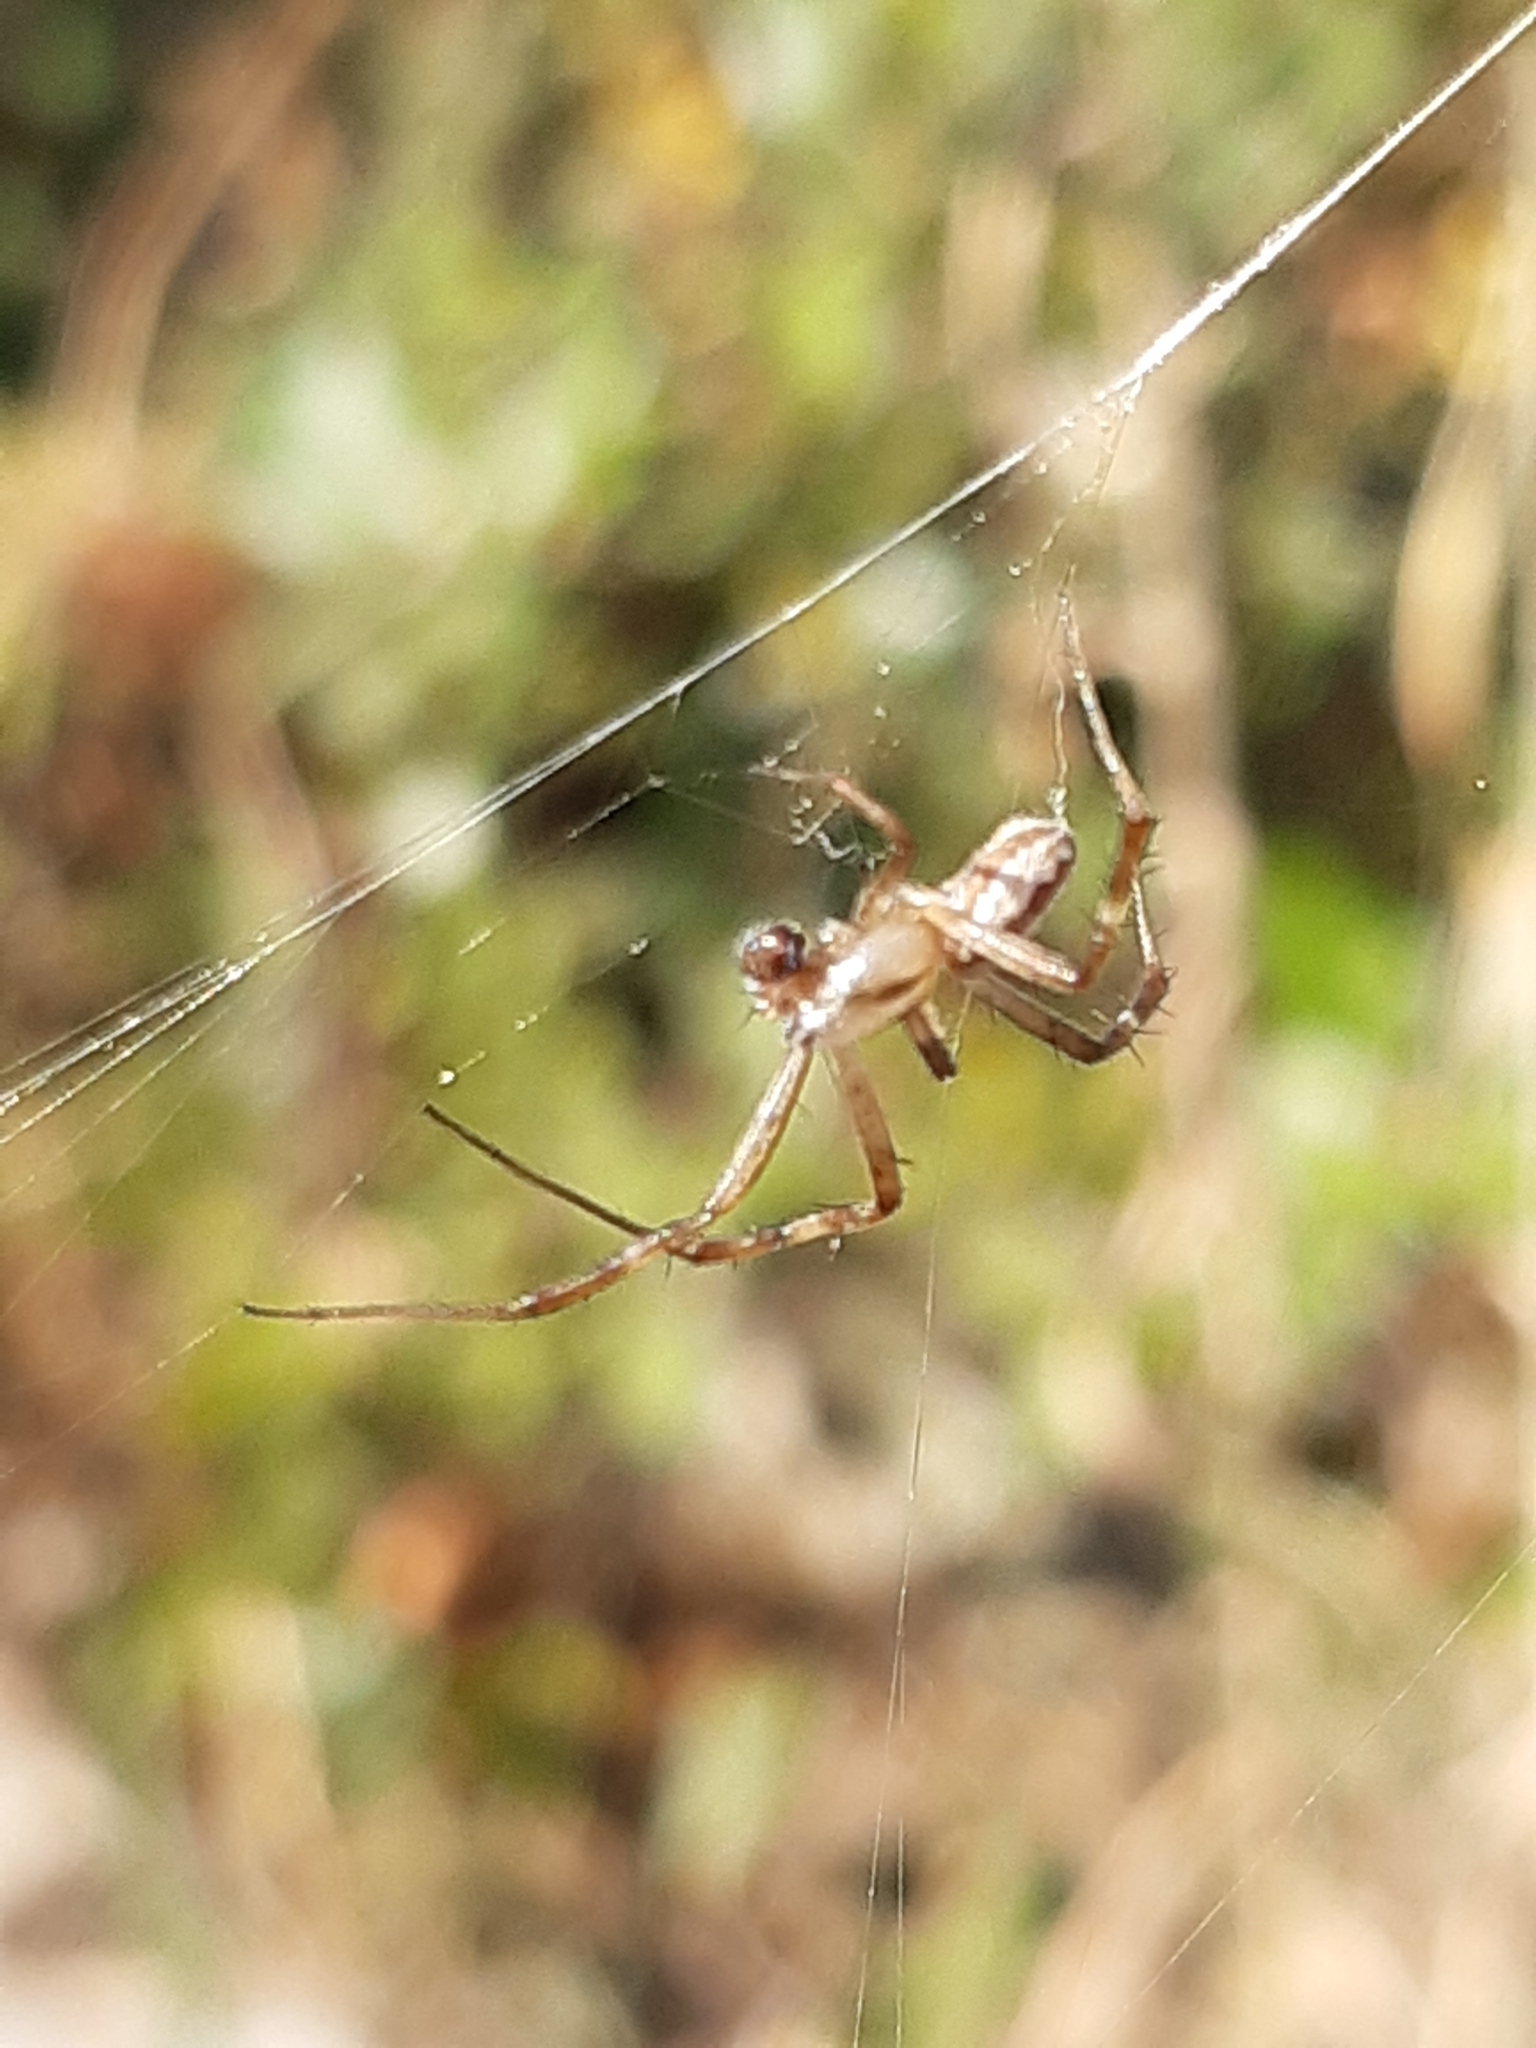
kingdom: Animalia
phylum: Arthropoda
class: Arachnida
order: Araneae
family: Araneidae
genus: Argiope
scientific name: Argiope lobata
